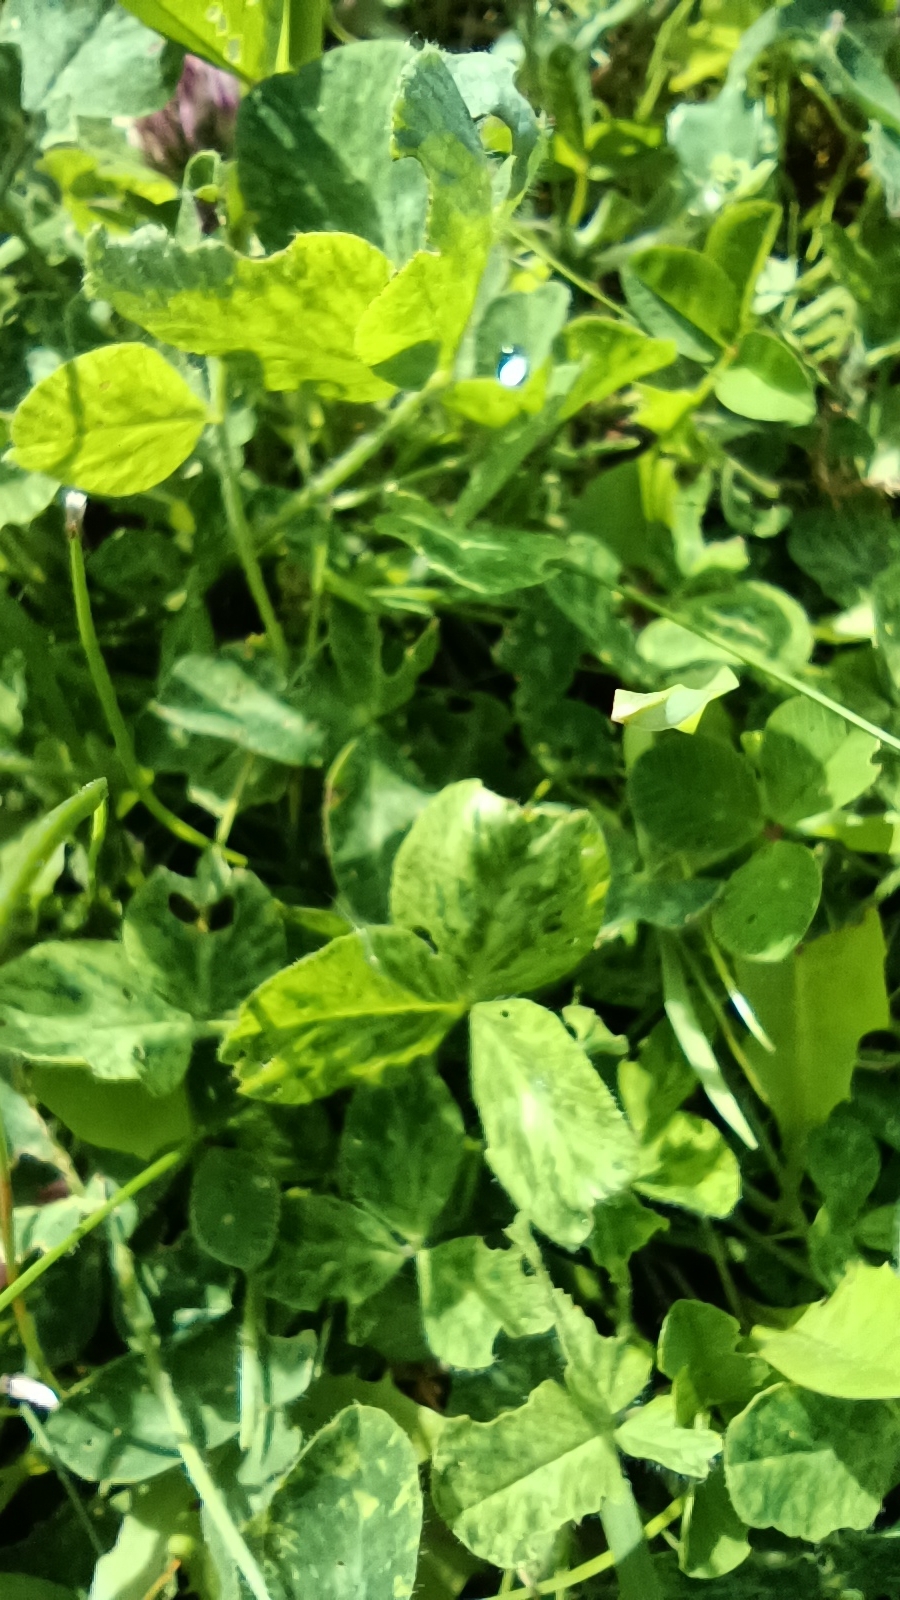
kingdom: Plantae
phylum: Tracheophyta
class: Magnoliopsida
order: Fabales
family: Fabaceae
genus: Trifolium
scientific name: Trifolium pratense
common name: Red clover
